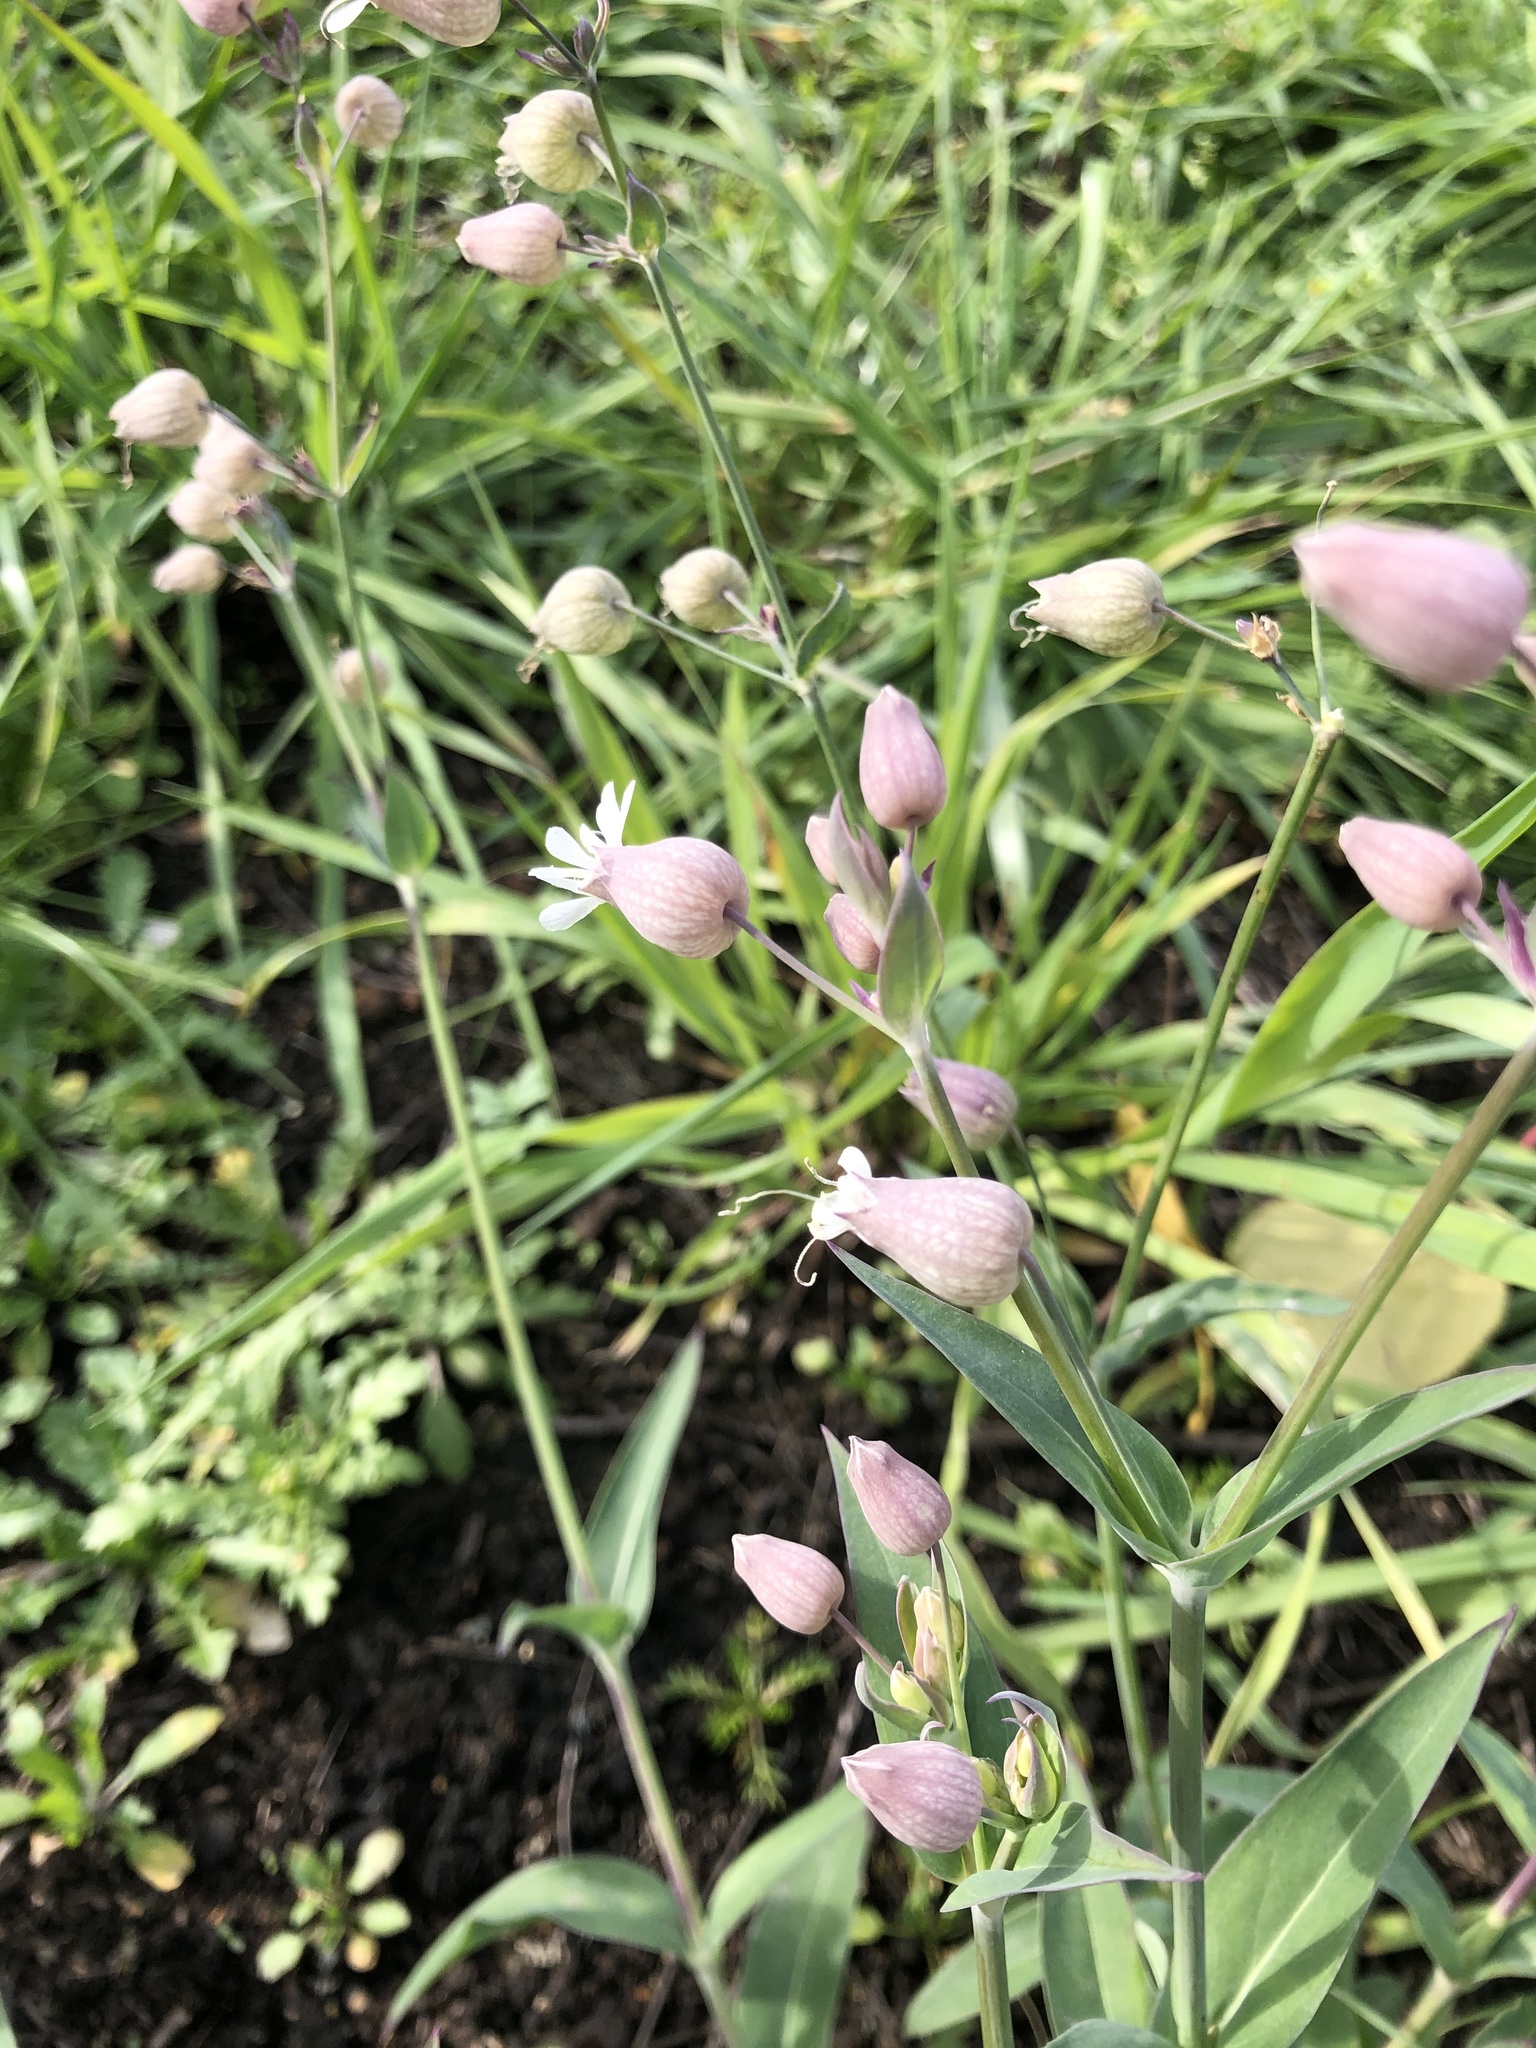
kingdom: Plantae
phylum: Tracheophyta
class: Magnoliopsida
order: Caryophyllales
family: Caryophyllaceae
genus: Silene
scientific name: Silene vulgaris
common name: Bladder campion
